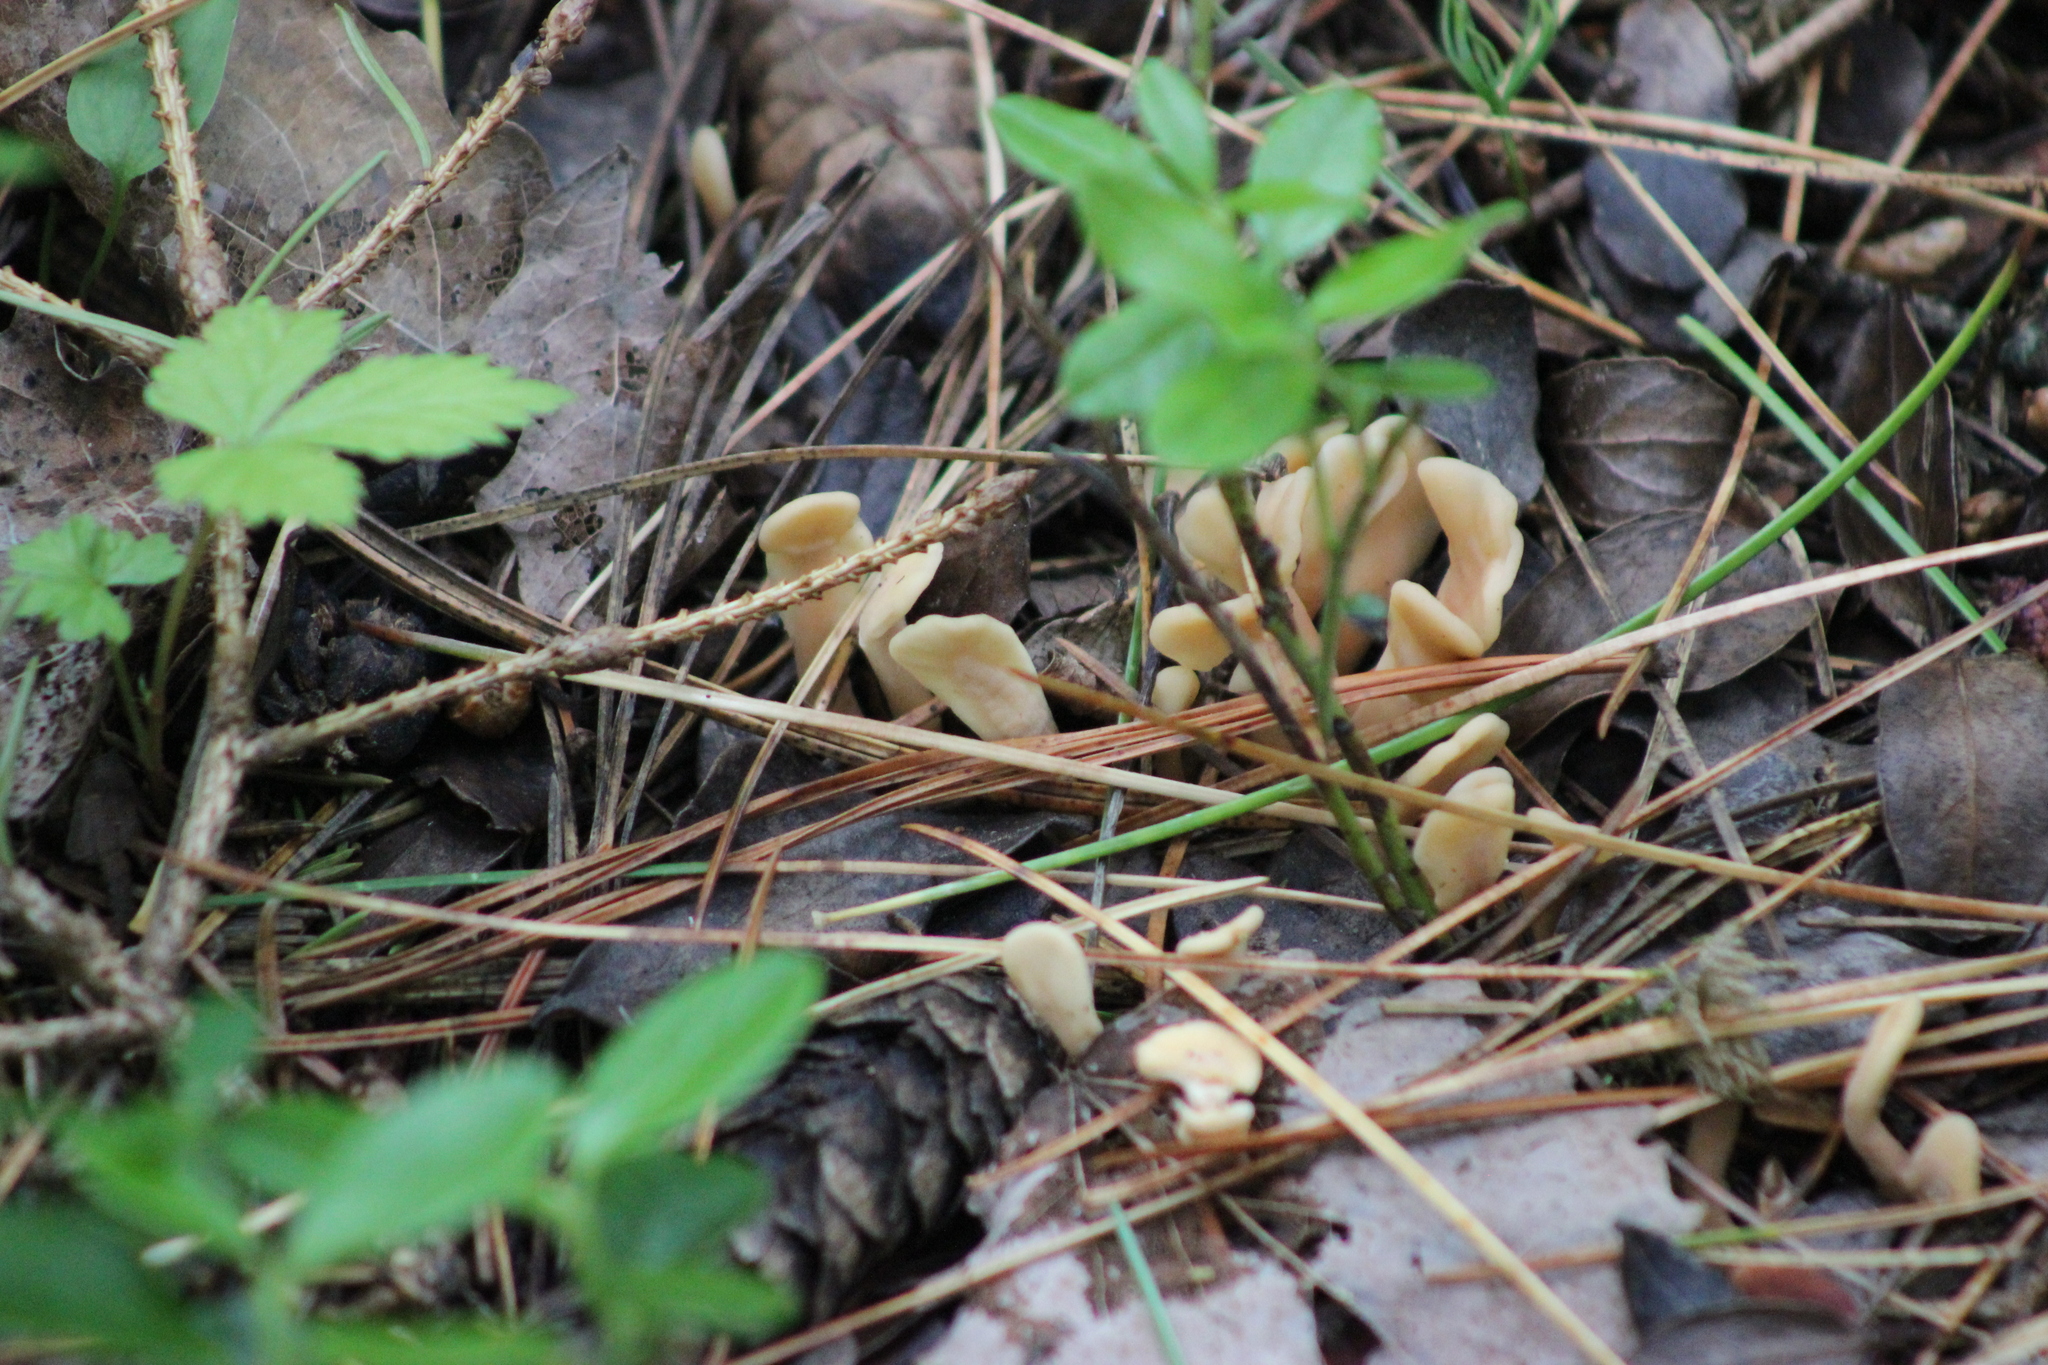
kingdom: Fungi
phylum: Ascomycota
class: Leotiomycetes
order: Rhytismatales
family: Cudoniaceae
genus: Spathularia
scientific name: Spathularia rufa
